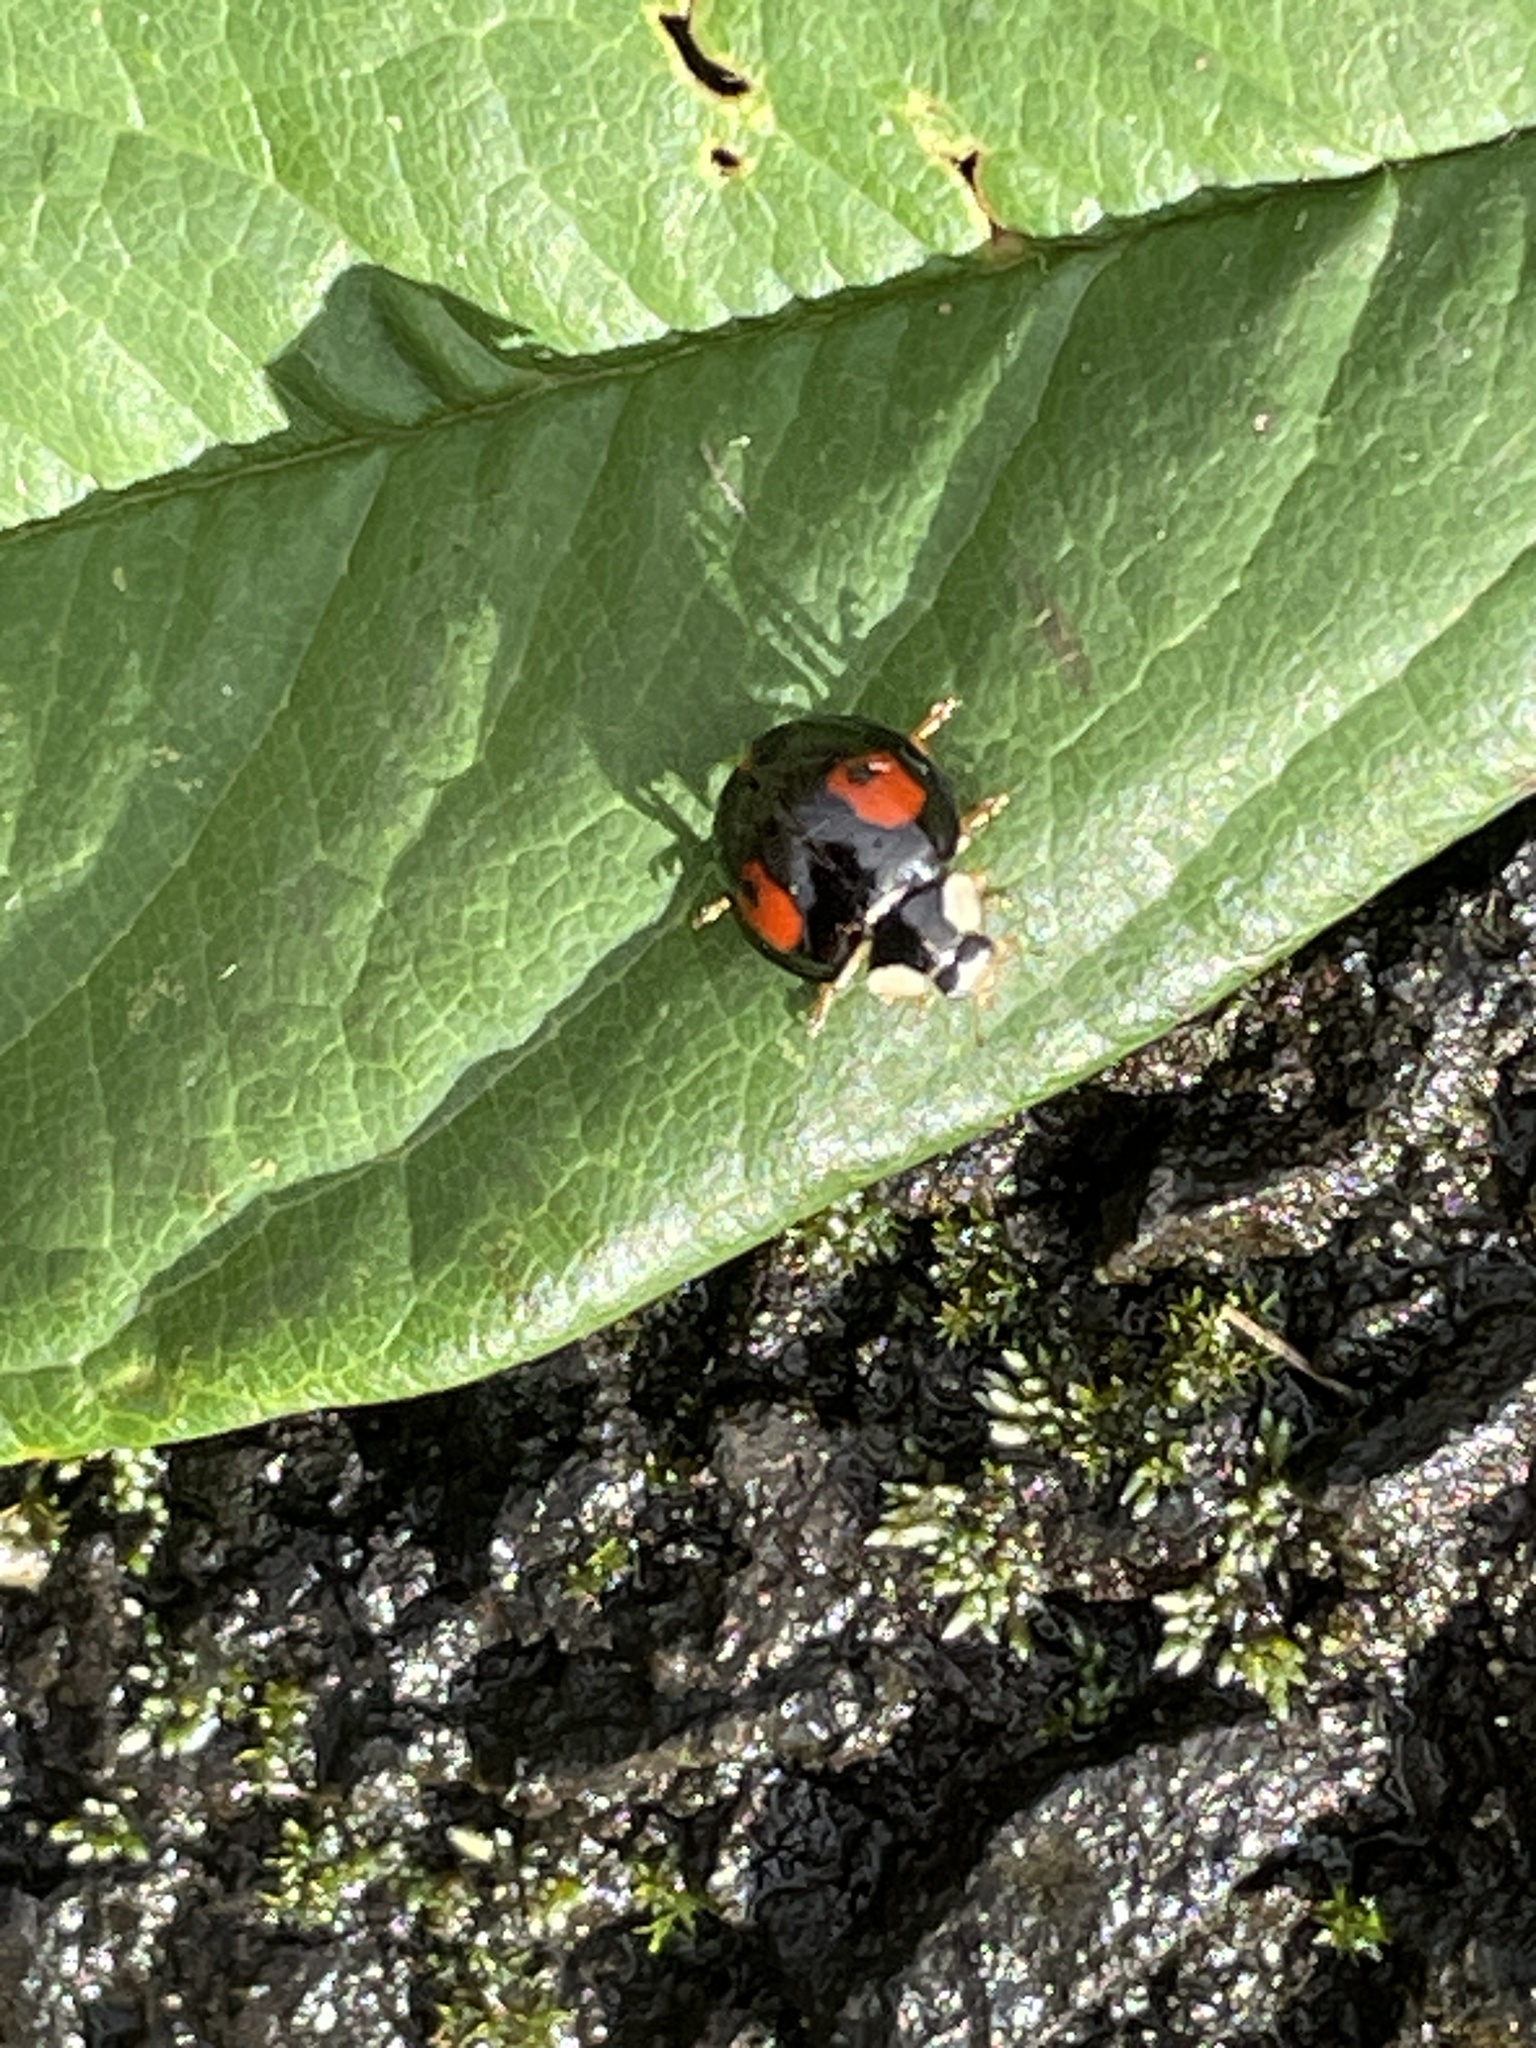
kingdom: Animalia
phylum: Arthropoda
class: Insecta
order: Coleoptera
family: Coccinellidae
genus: Harmonia
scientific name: Harmonia axyridis
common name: Harlequin ladybird
